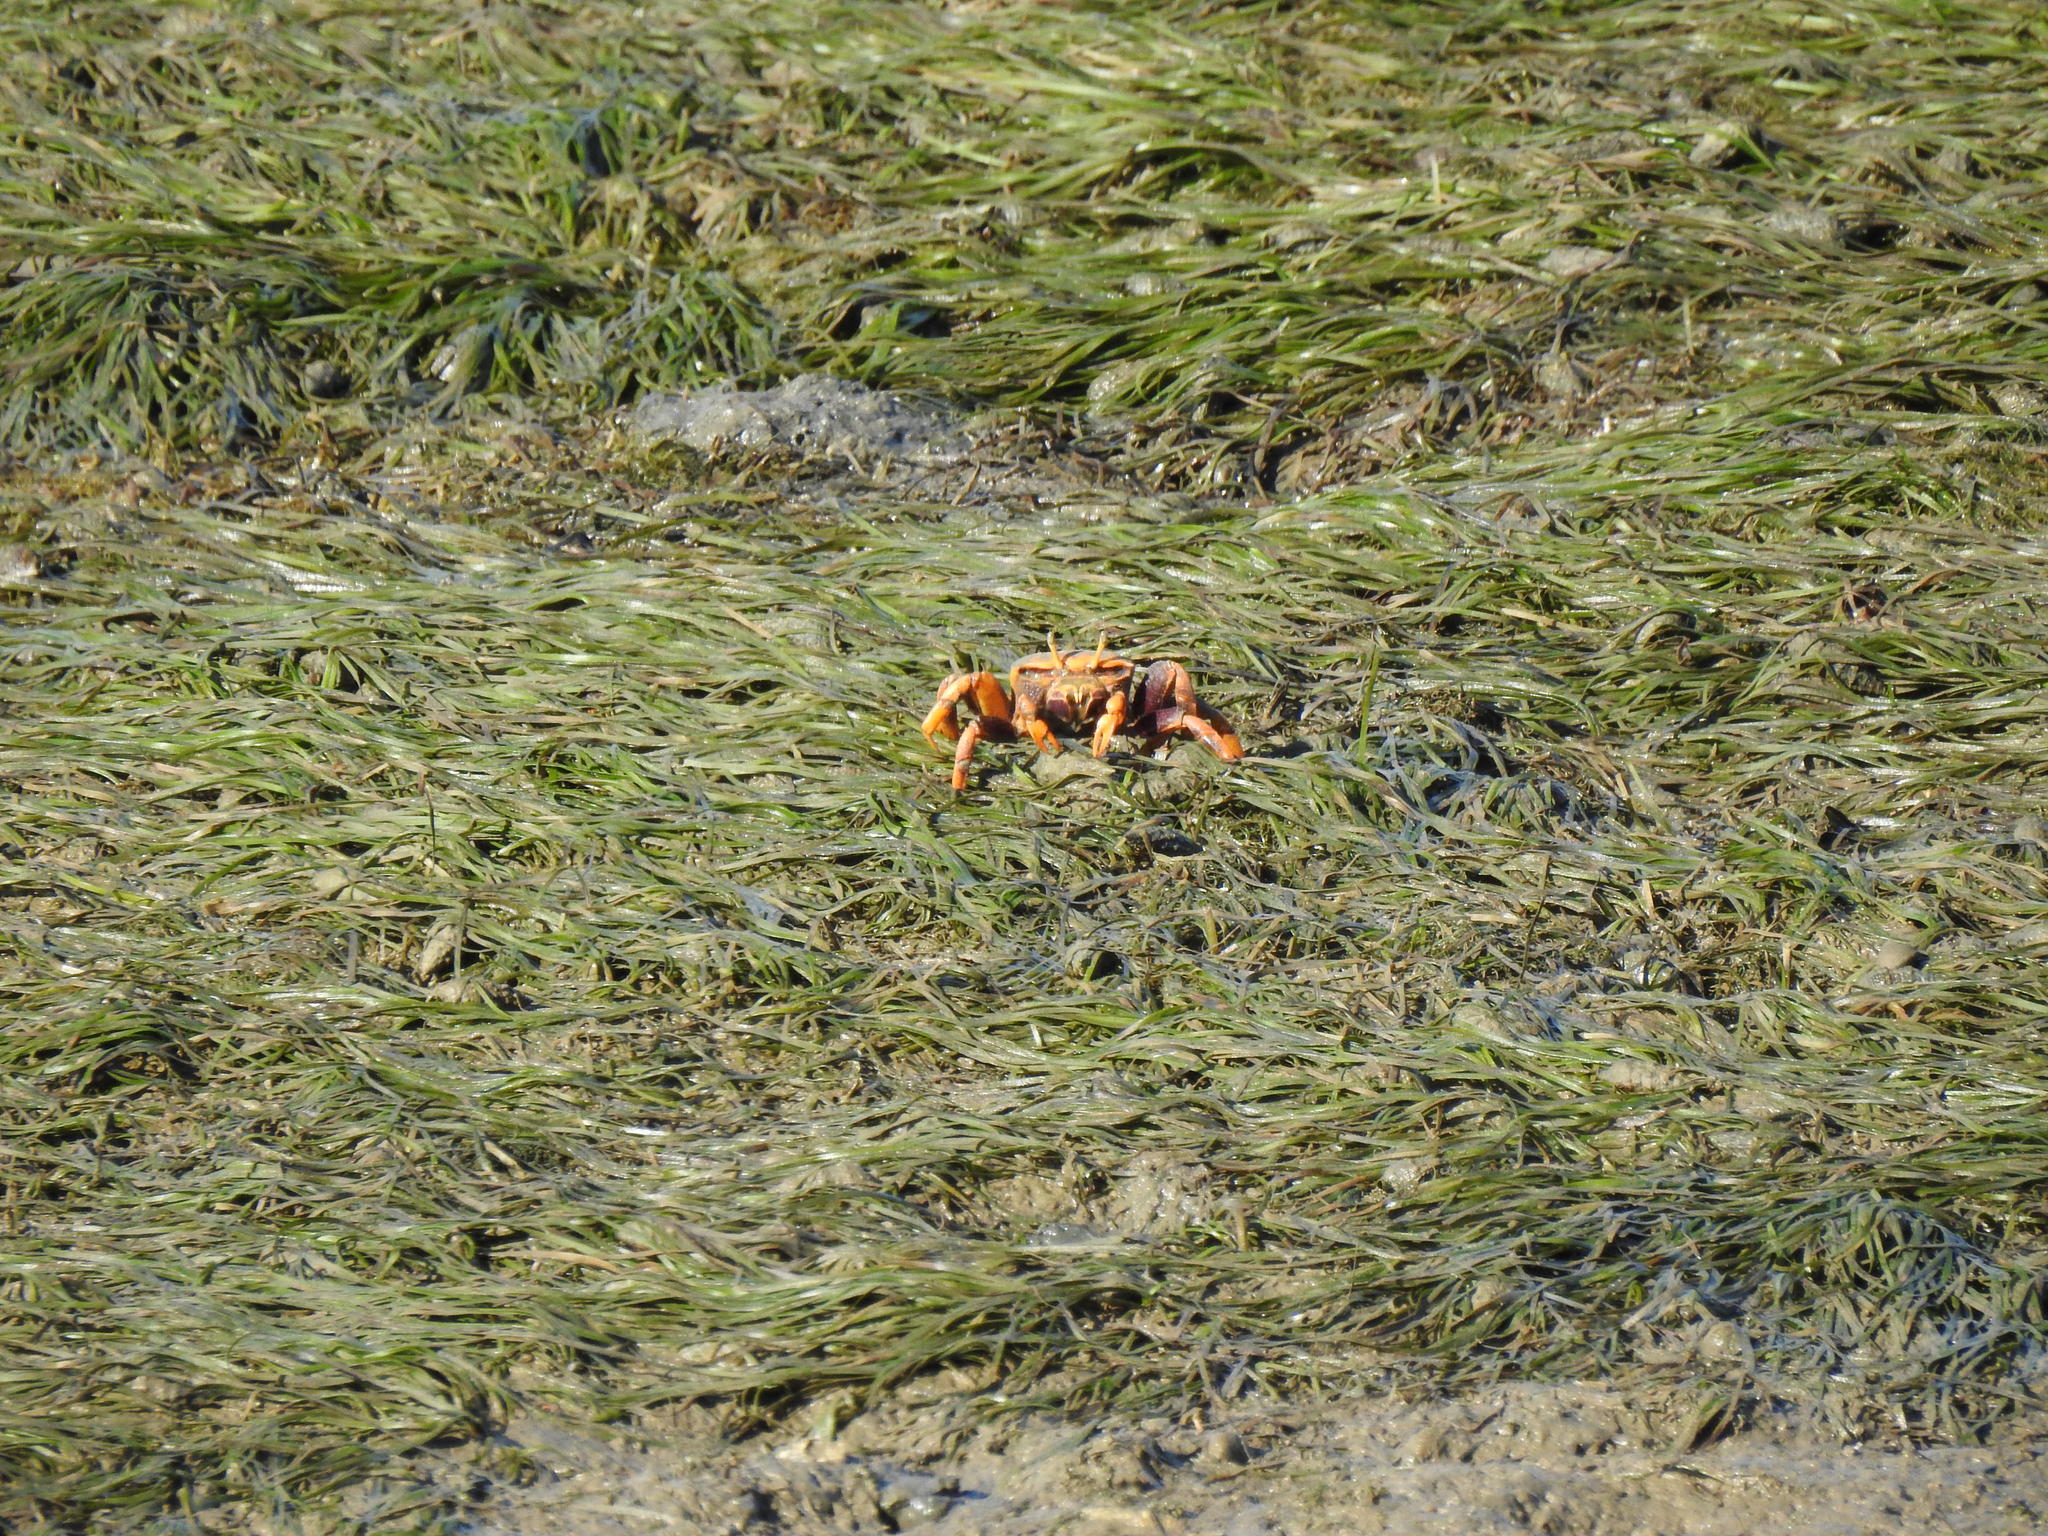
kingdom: Plantae
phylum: Tracheophyta
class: Liliopsida
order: Alismatales
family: Zosteraceae
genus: Zostera
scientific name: Zostera noltii
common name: Dwarf eelgrass
